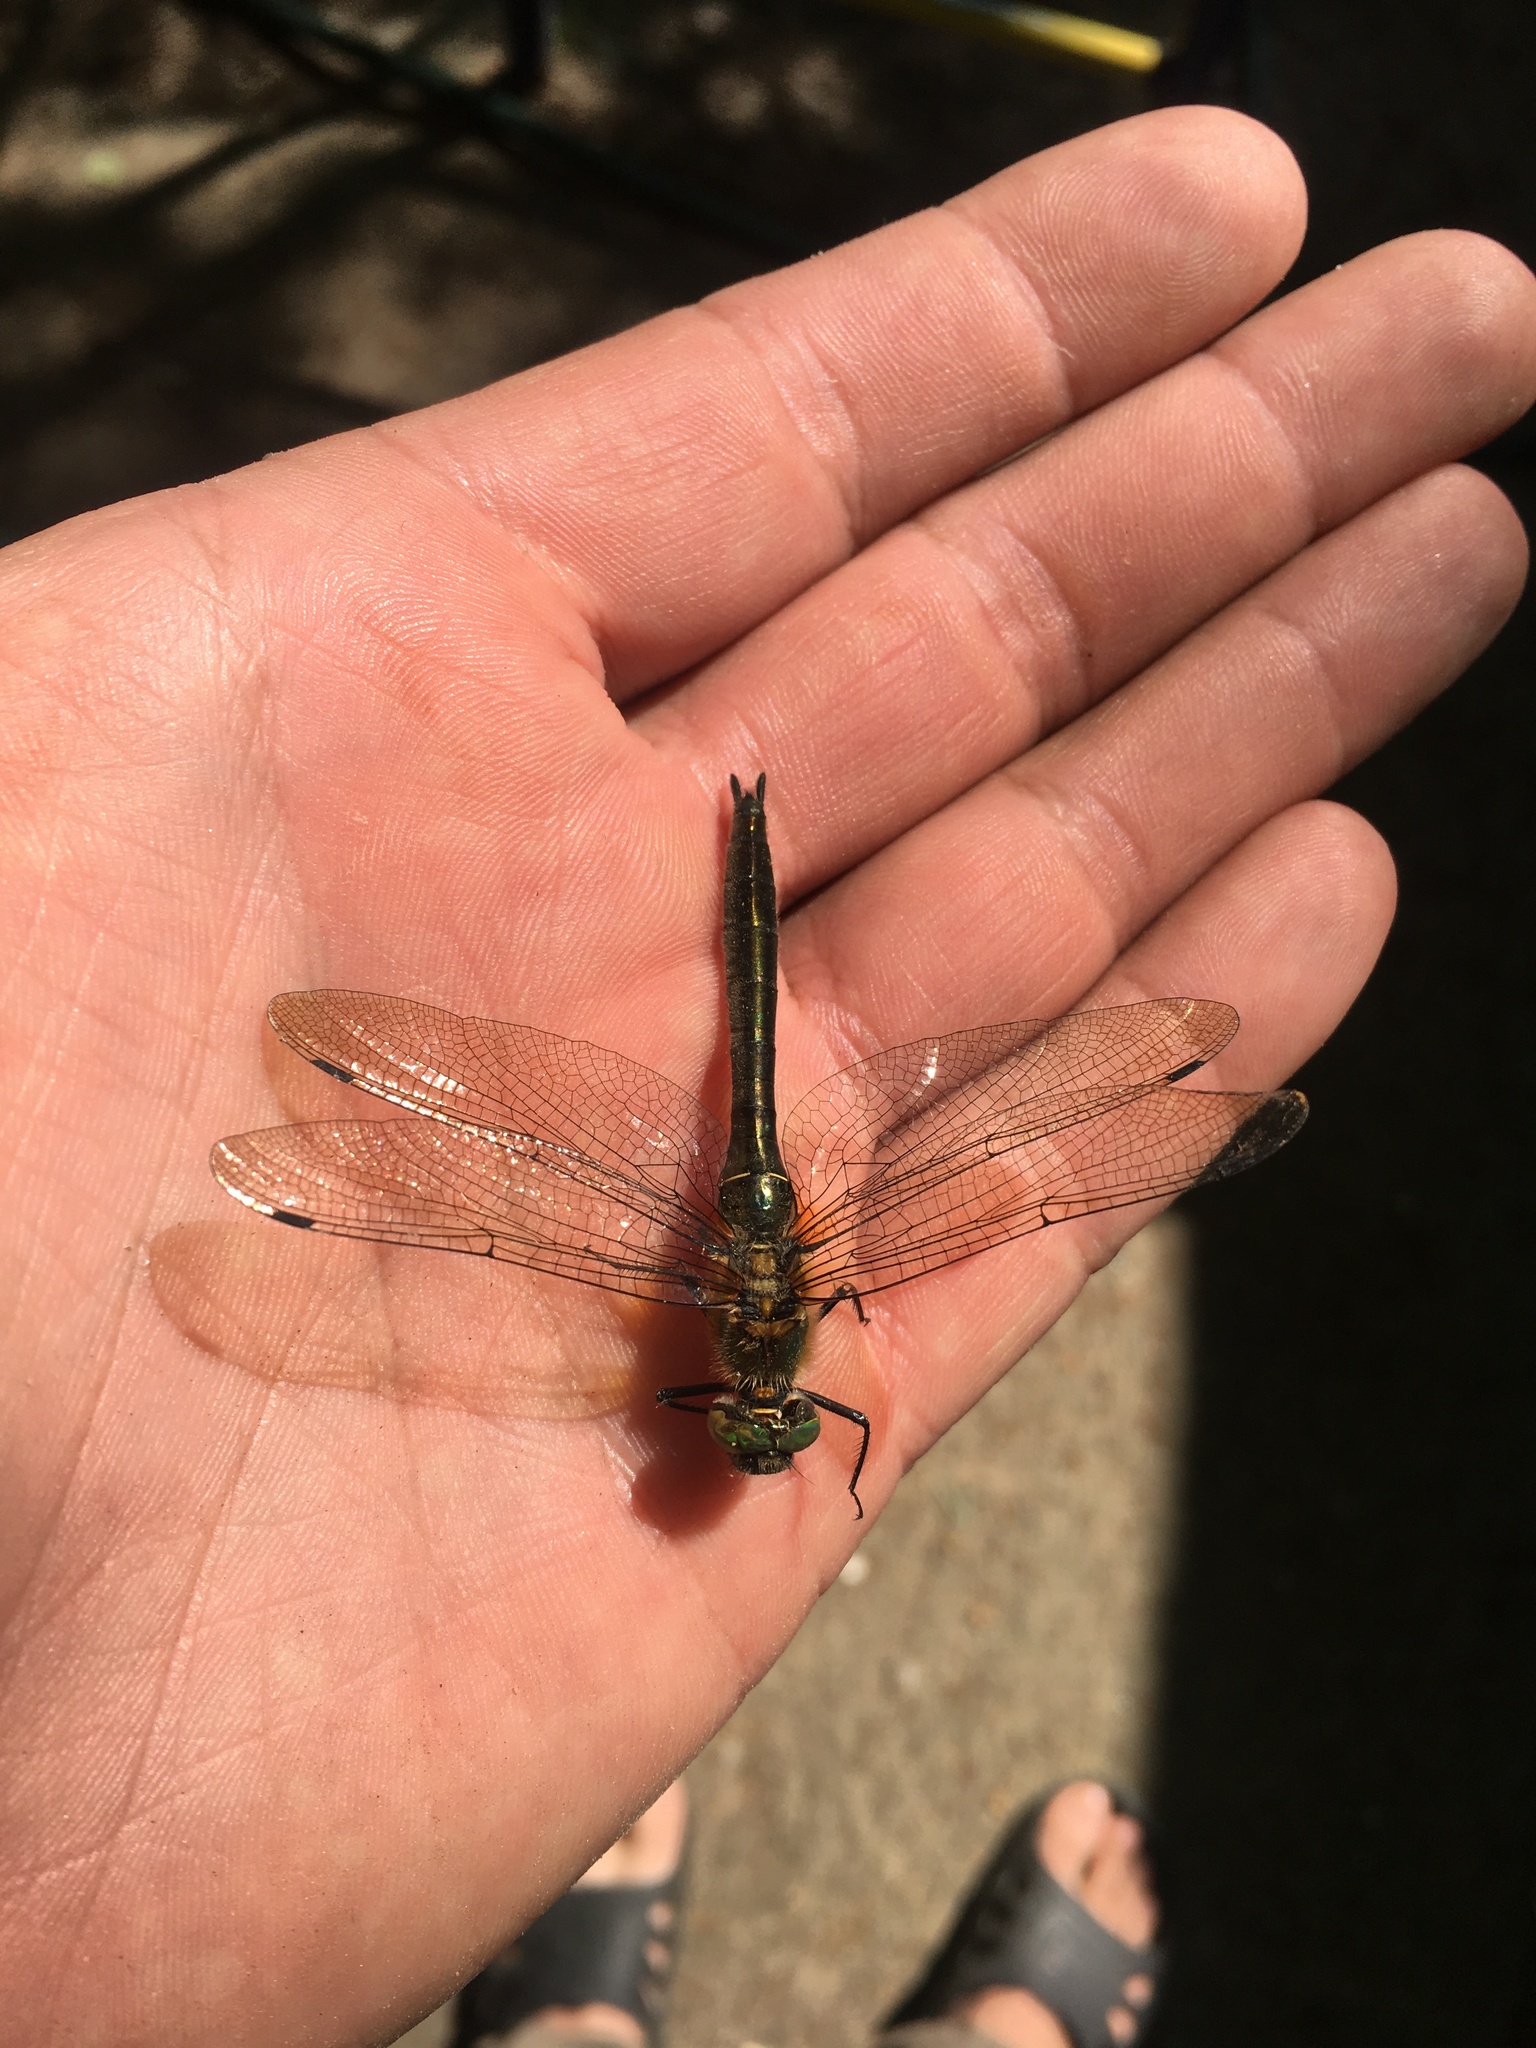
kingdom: Animalia
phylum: Arthropoda
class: Insecta
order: Odonata
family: Corduliidae
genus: Cordulia
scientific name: Cordulia aenea
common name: Downy emerald
